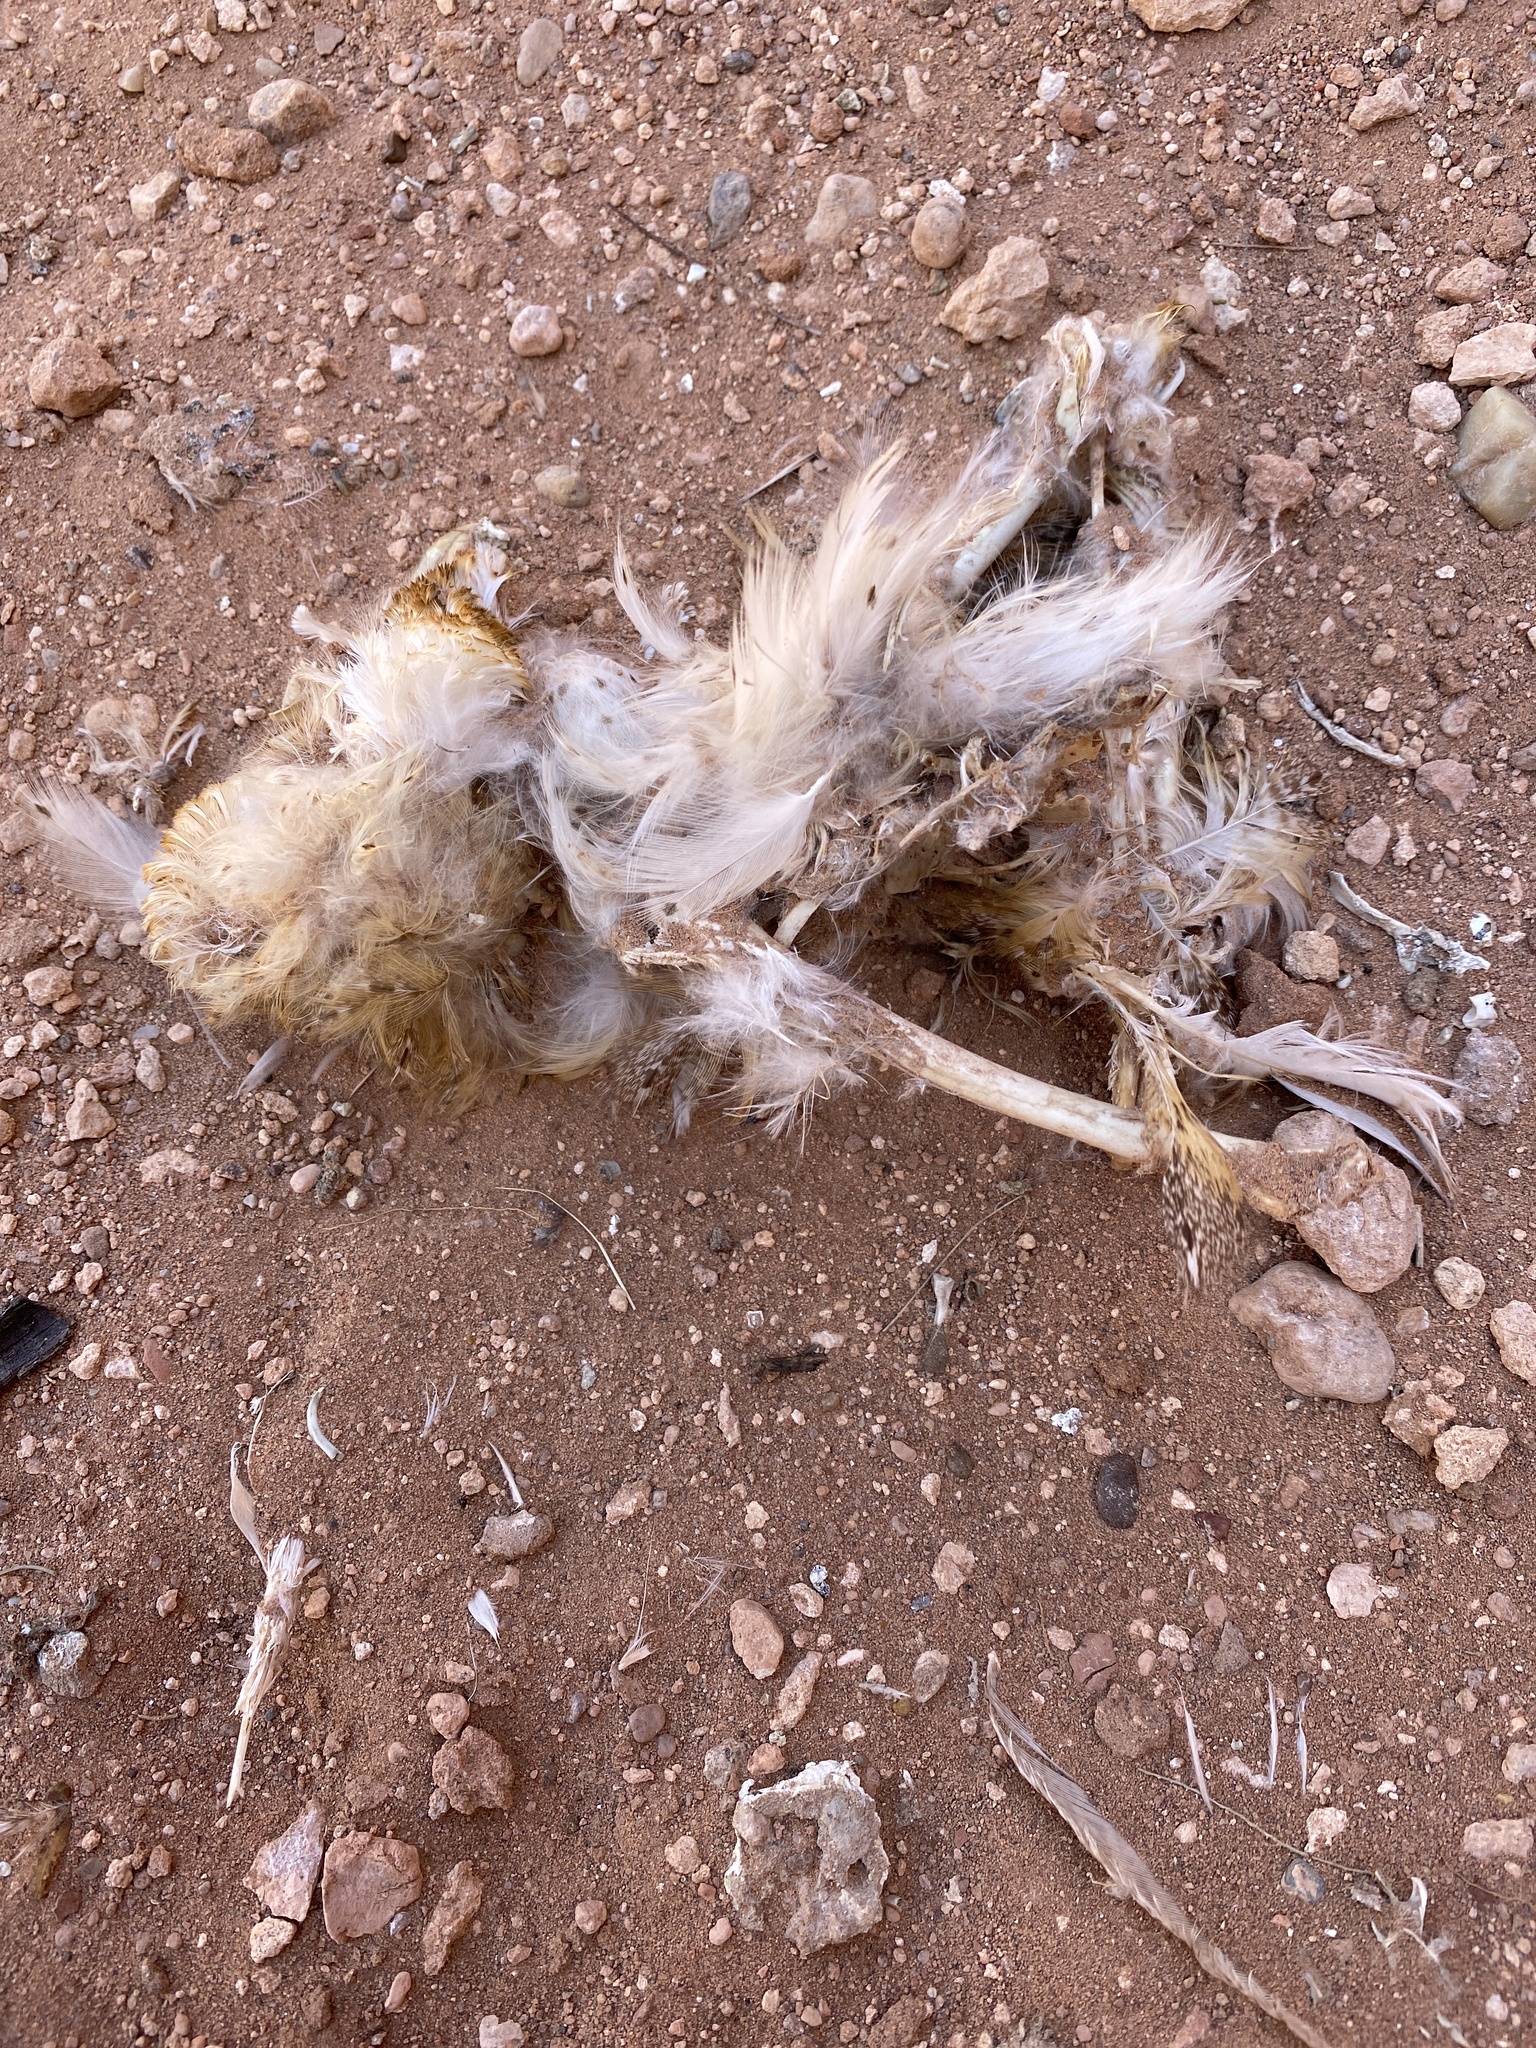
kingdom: Animalia
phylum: Chordata
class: Aves
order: Strigiformes
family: Tytonidae
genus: Tyto
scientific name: Tyto alba
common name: Barn owl
